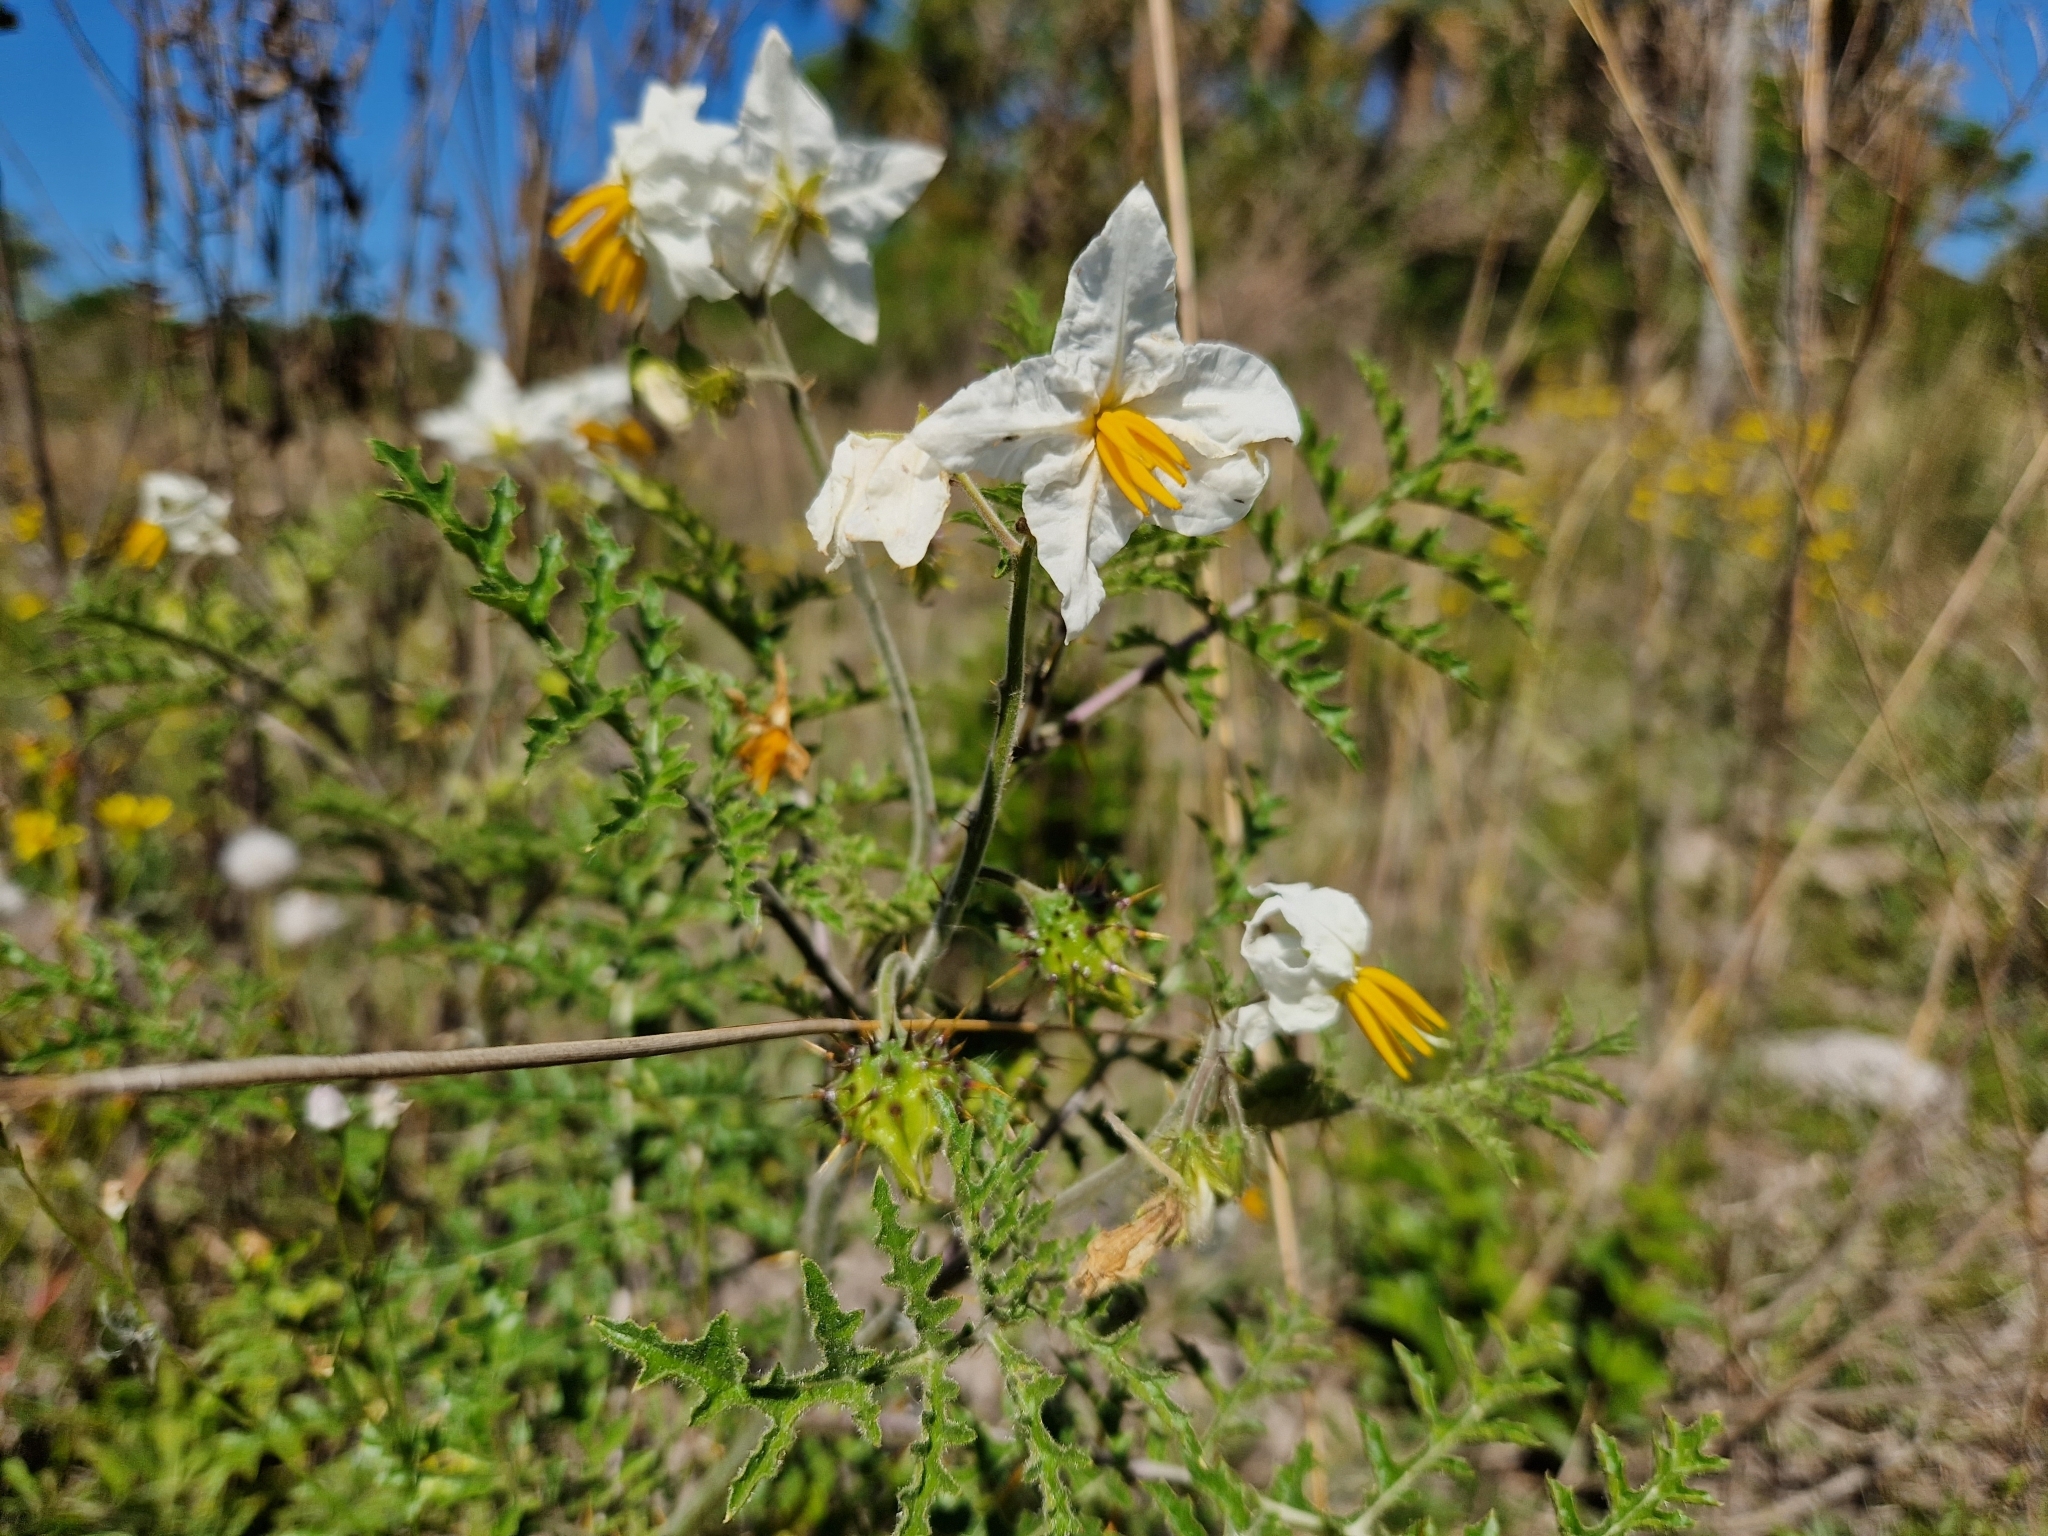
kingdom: Plantae
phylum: Tracheophyta
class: Magnoliopsida
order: Solanales
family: Solanaceae
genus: Solanum
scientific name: Solanum sisymbriifolium
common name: Red buffalo-bur
